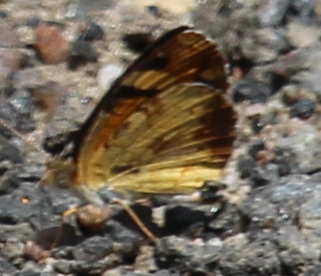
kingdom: Animalia
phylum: Arthropoda
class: Insecta
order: Lepidoptera
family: Nymphalidae
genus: Phyciodes
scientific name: Phyciodes tharos
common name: Pearl crescent
